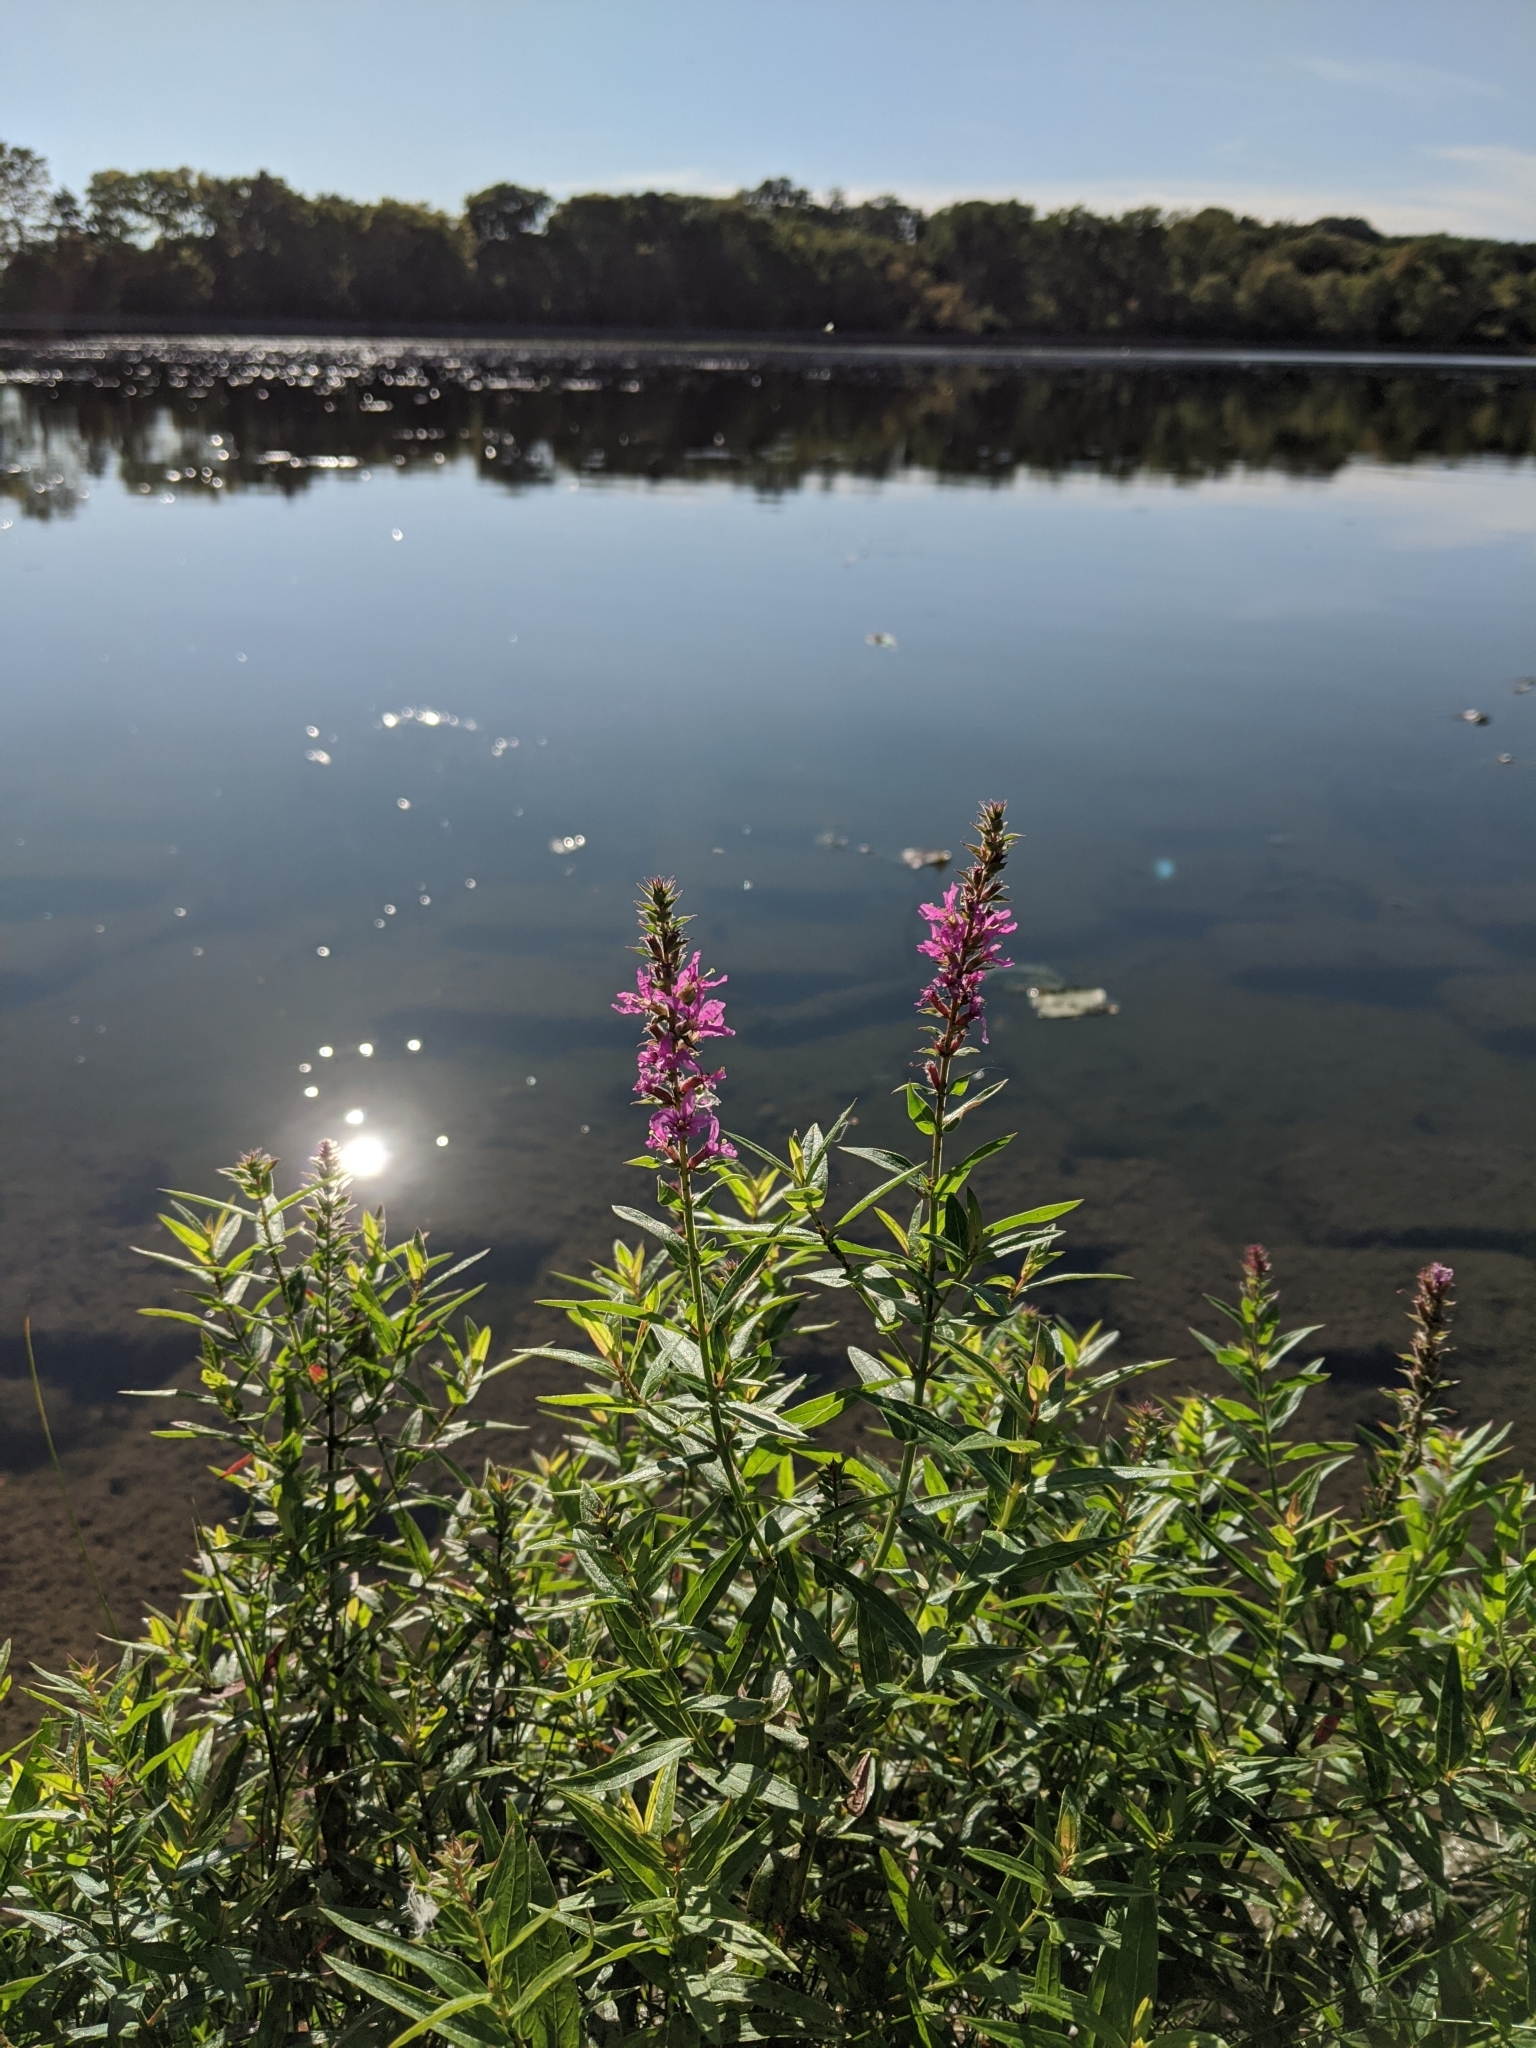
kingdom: Plantae
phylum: Tracheophyta
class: Magnoliopsida
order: Myrtales
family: Lythraceae
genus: Lythrum
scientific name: Lythrum salicaria
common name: Purple loosestrife
